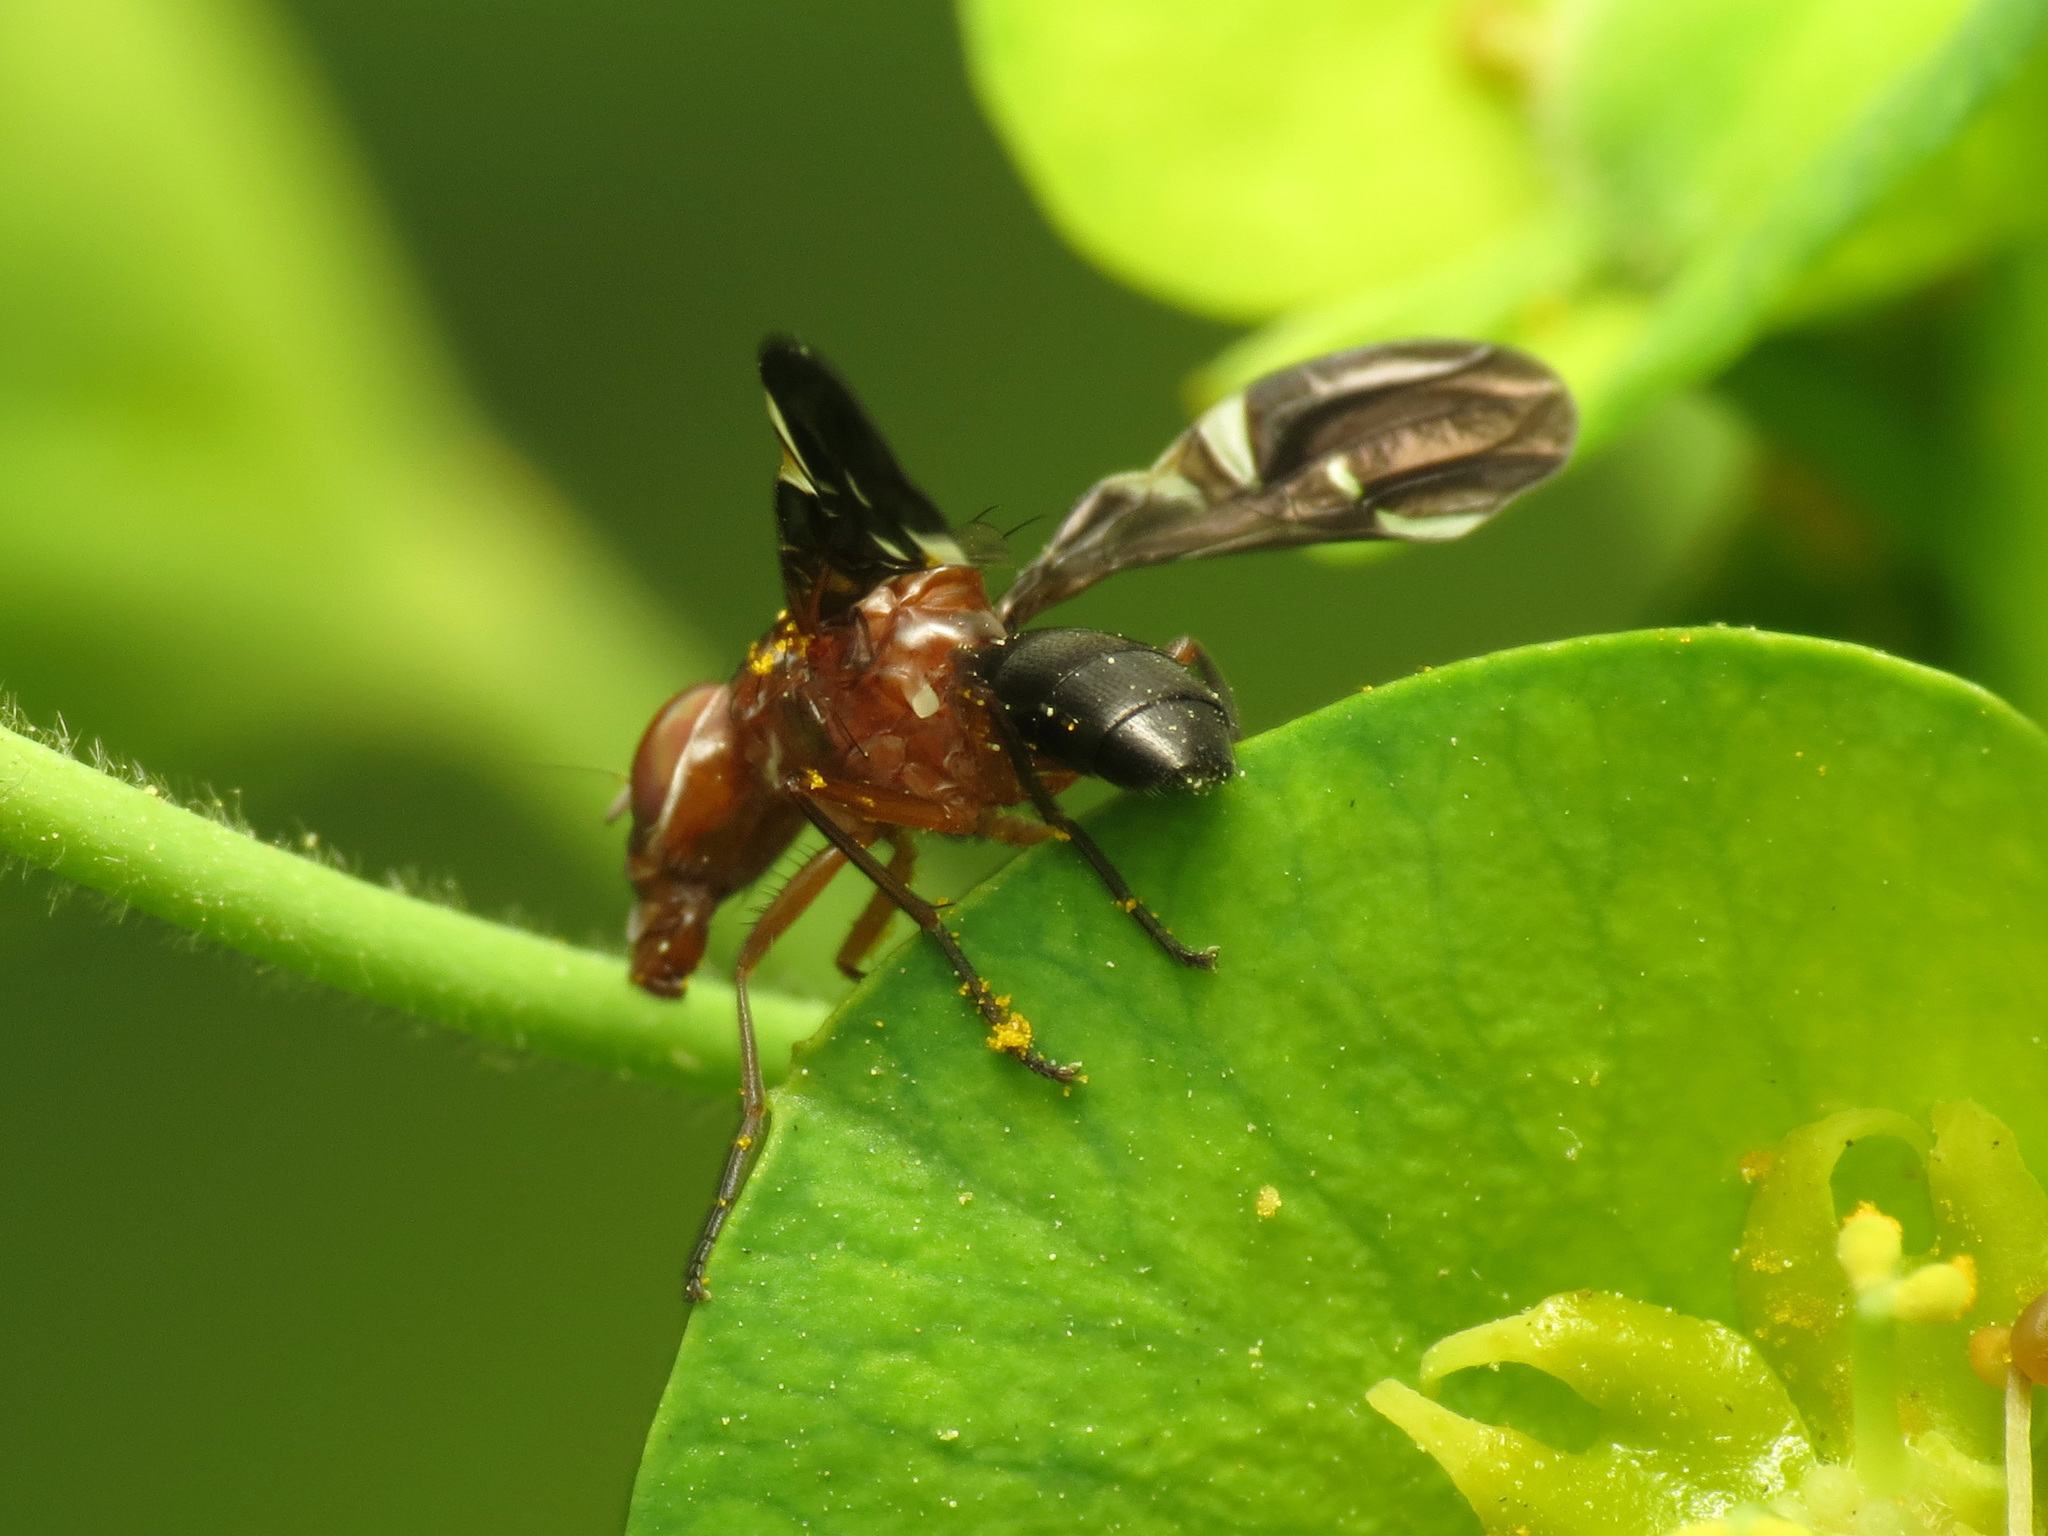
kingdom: Animalia
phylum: Arthropoda
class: Insecta
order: Diptera
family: Ulidiidae
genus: Delphinia
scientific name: Delphinia picta
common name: Common picture-winged fly
